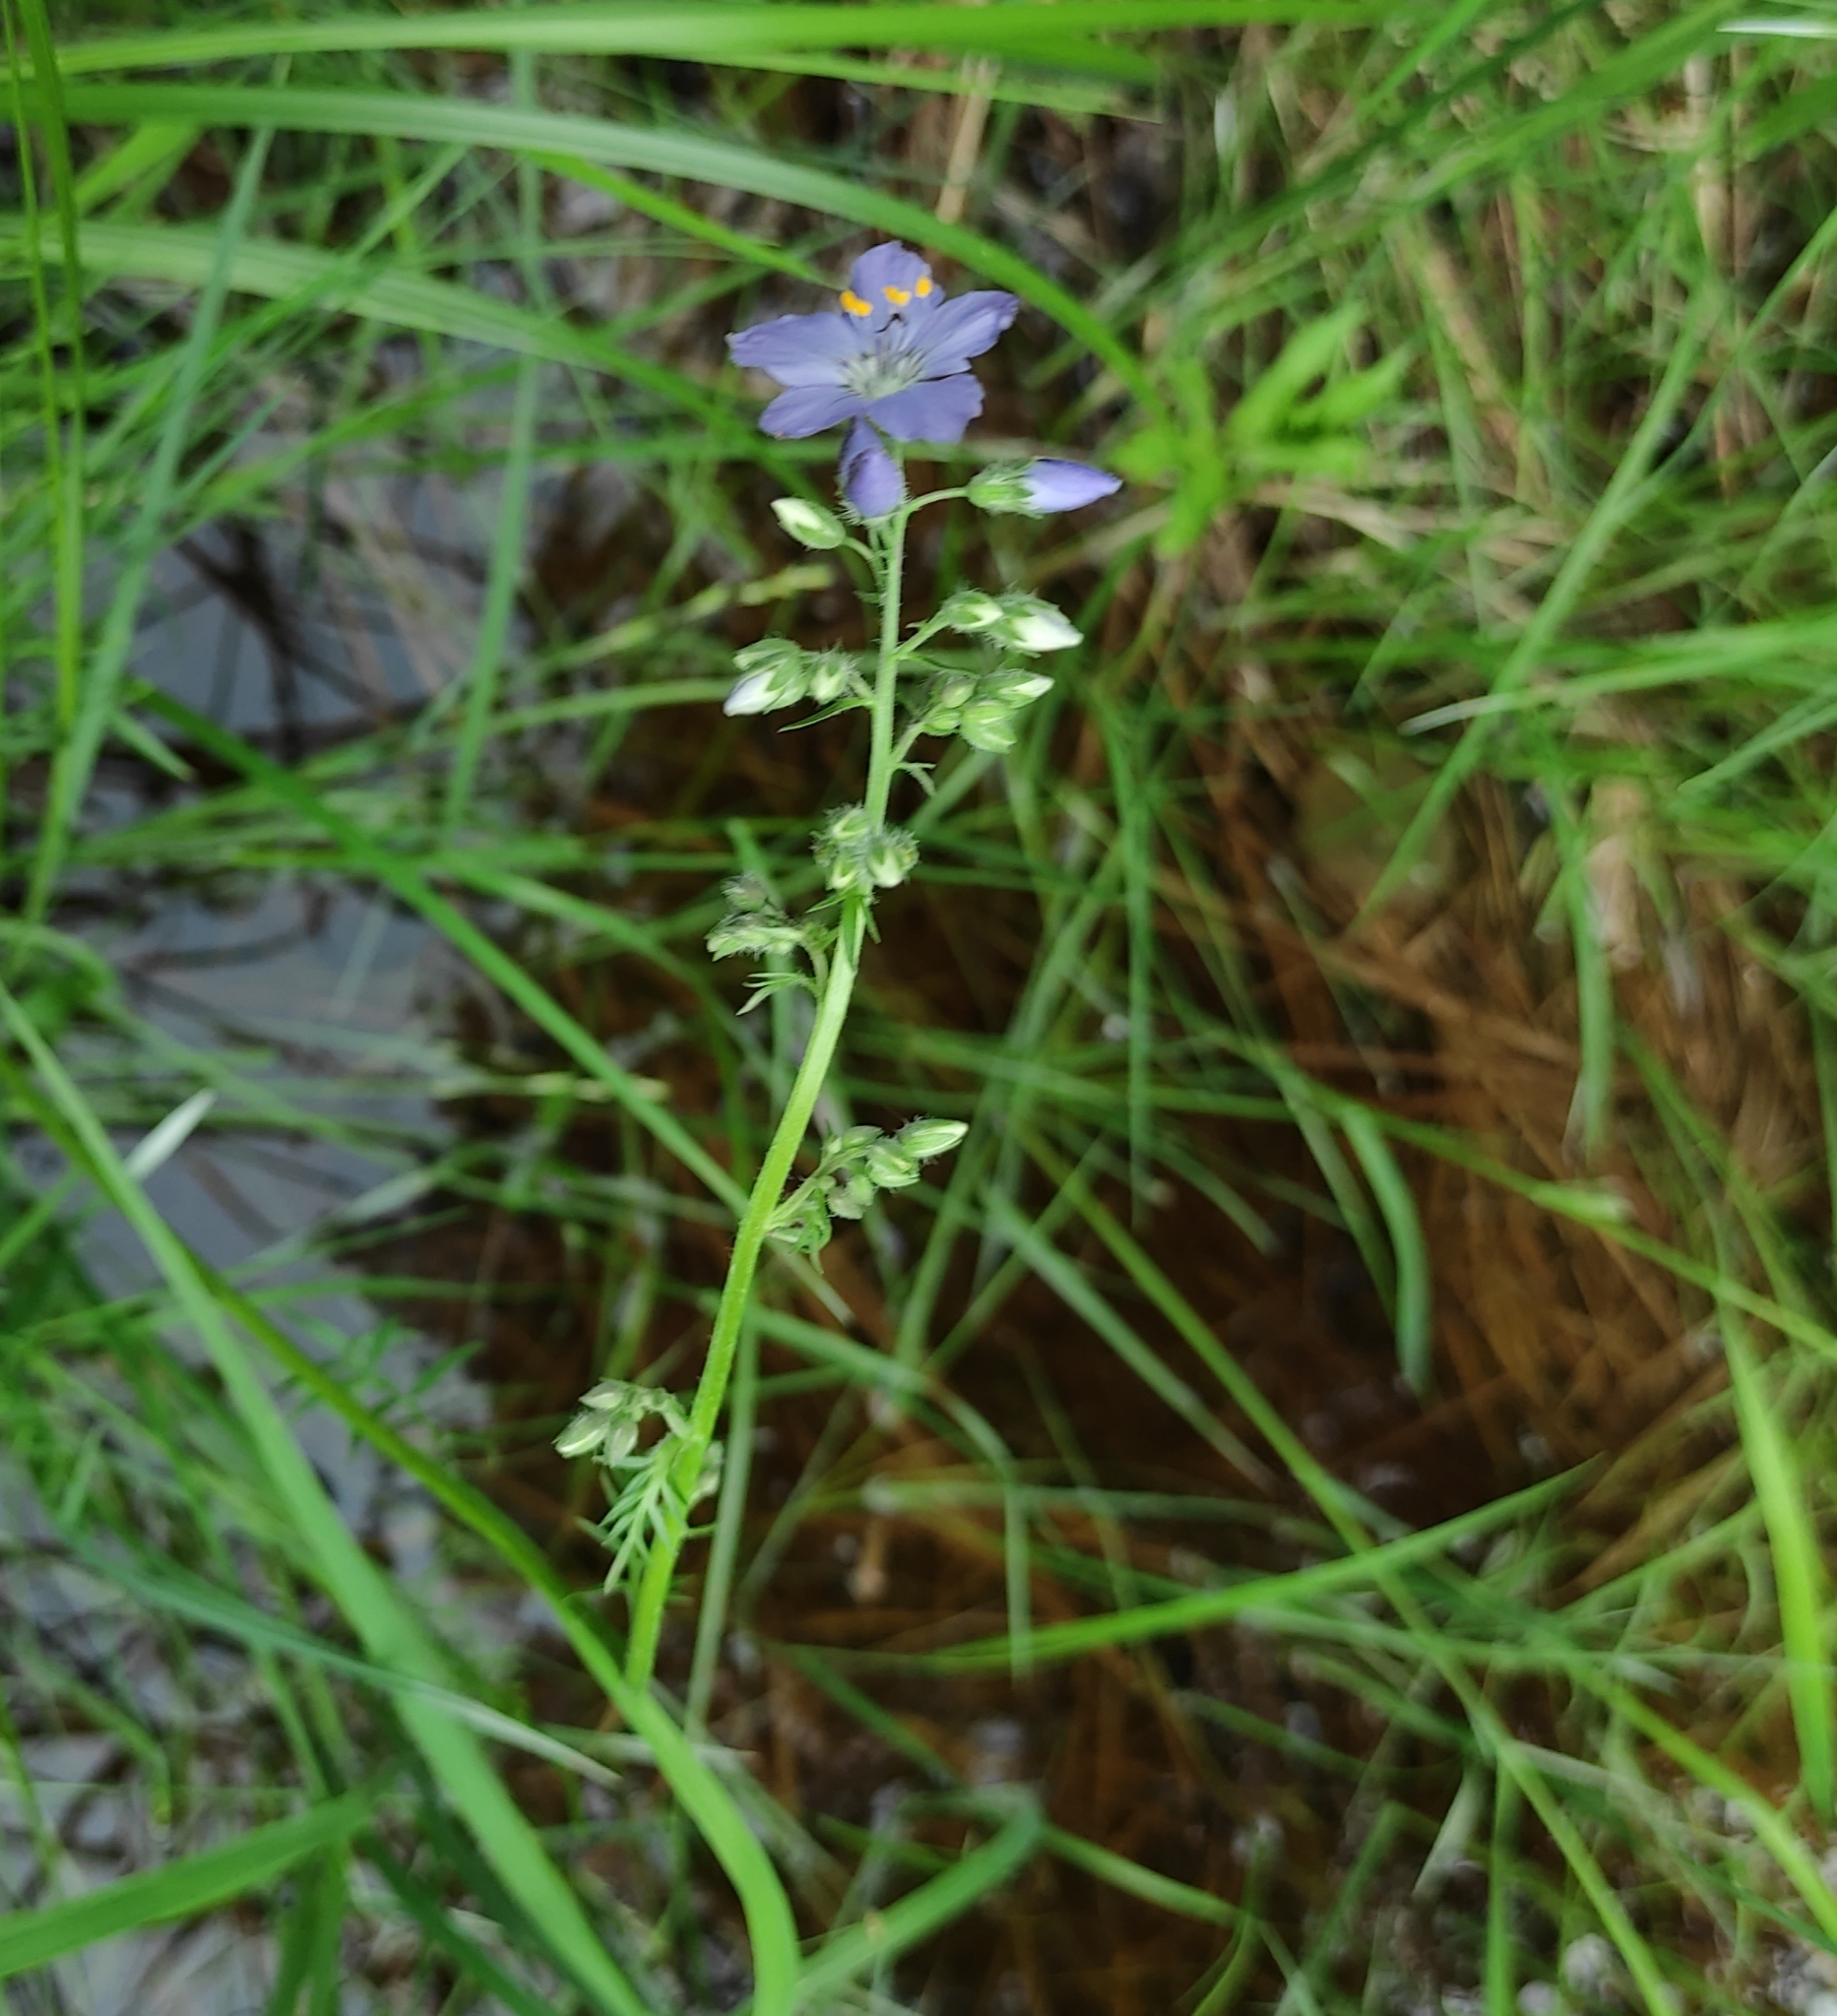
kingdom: Plantae
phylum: Tracheophyta
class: Magnoliopsida
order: Ericales
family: Polemoniaceae
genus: Polemonium
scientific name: Polemonium caeruleum
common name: Jacob's-ladder
